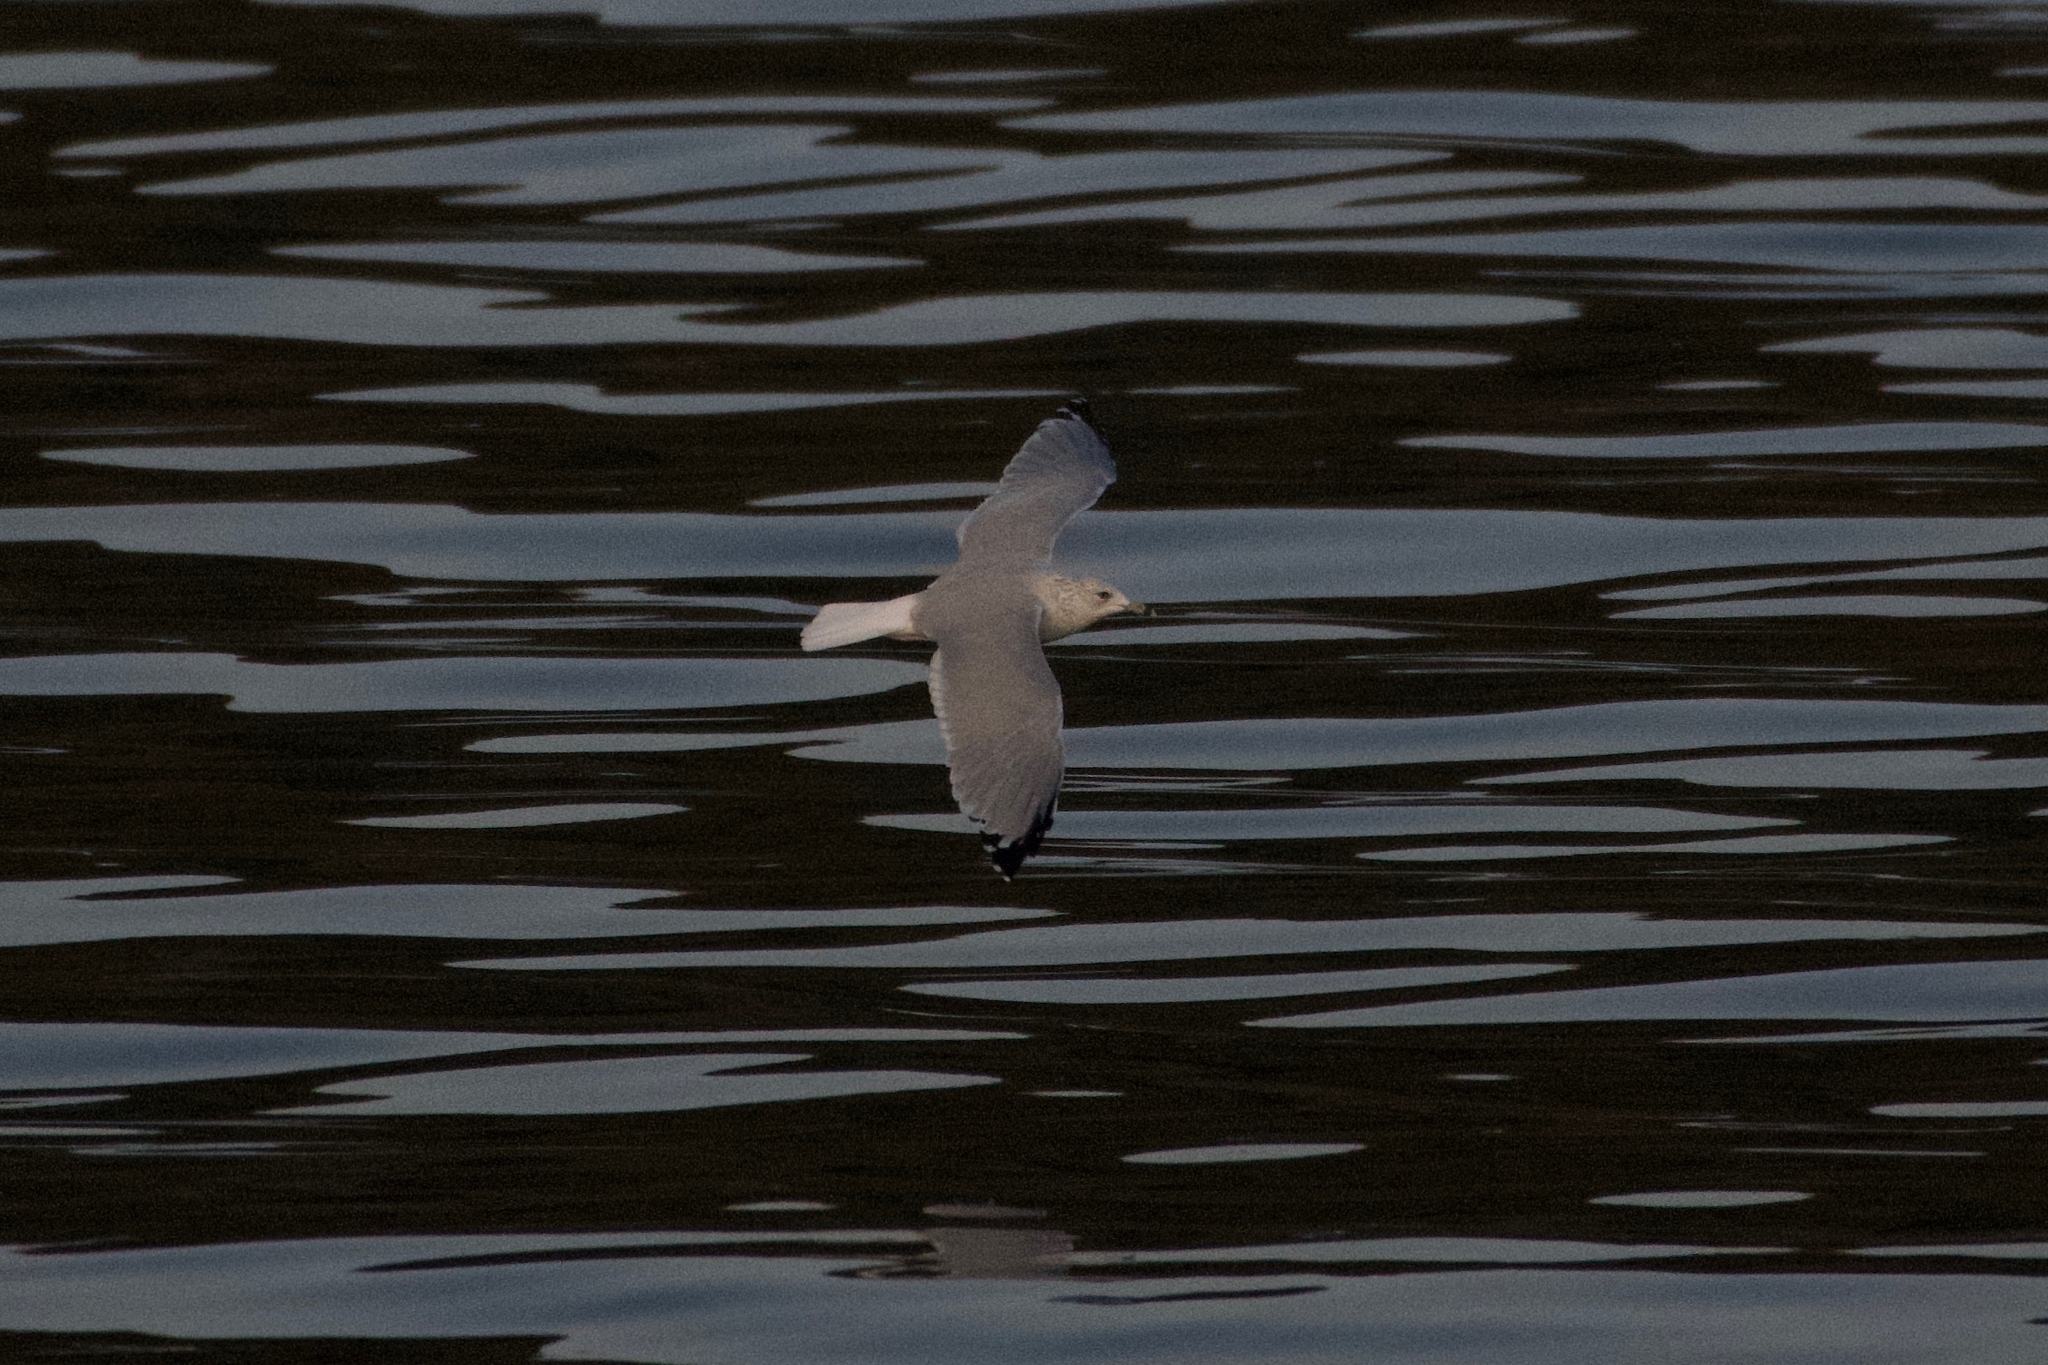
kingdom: Animalia
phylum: Chordata
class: Aves
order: Charadriiformes
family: Laridae
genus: Larus
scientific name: Larus delawarensis
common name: Ring-billed gull
